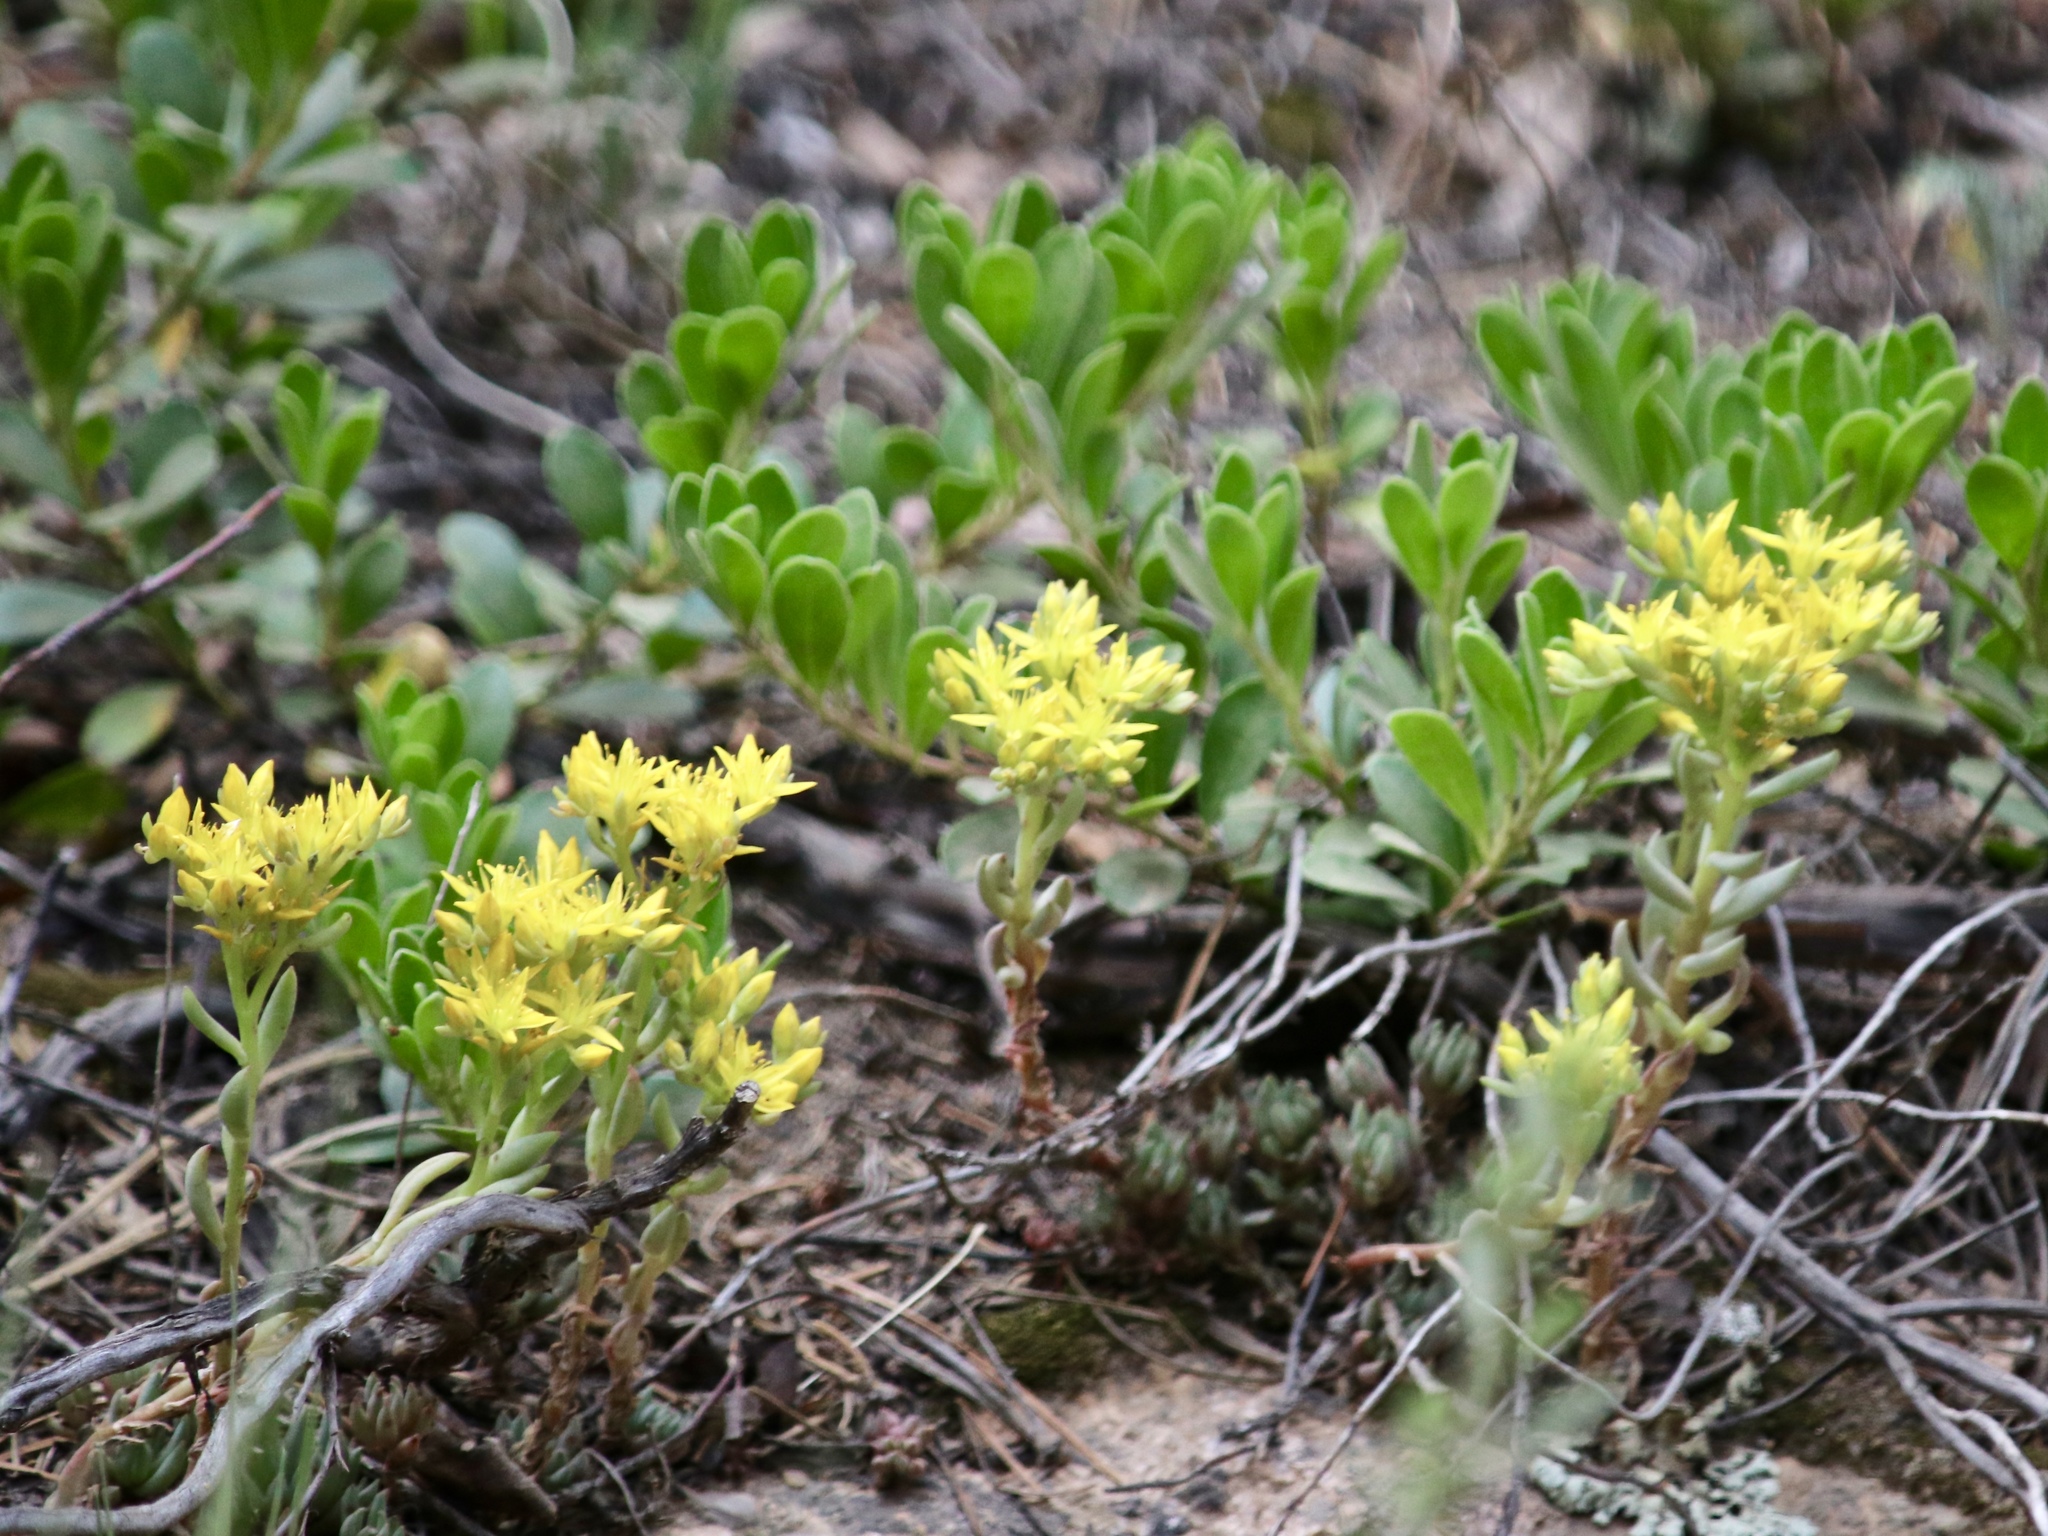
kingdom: Plantae
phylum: Tracheophyta
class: Magnoliopsida
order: Saxifragales
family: Crassulaceae
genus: Sedum
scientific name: Sedum lanceolatum
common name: Common stonecrop
